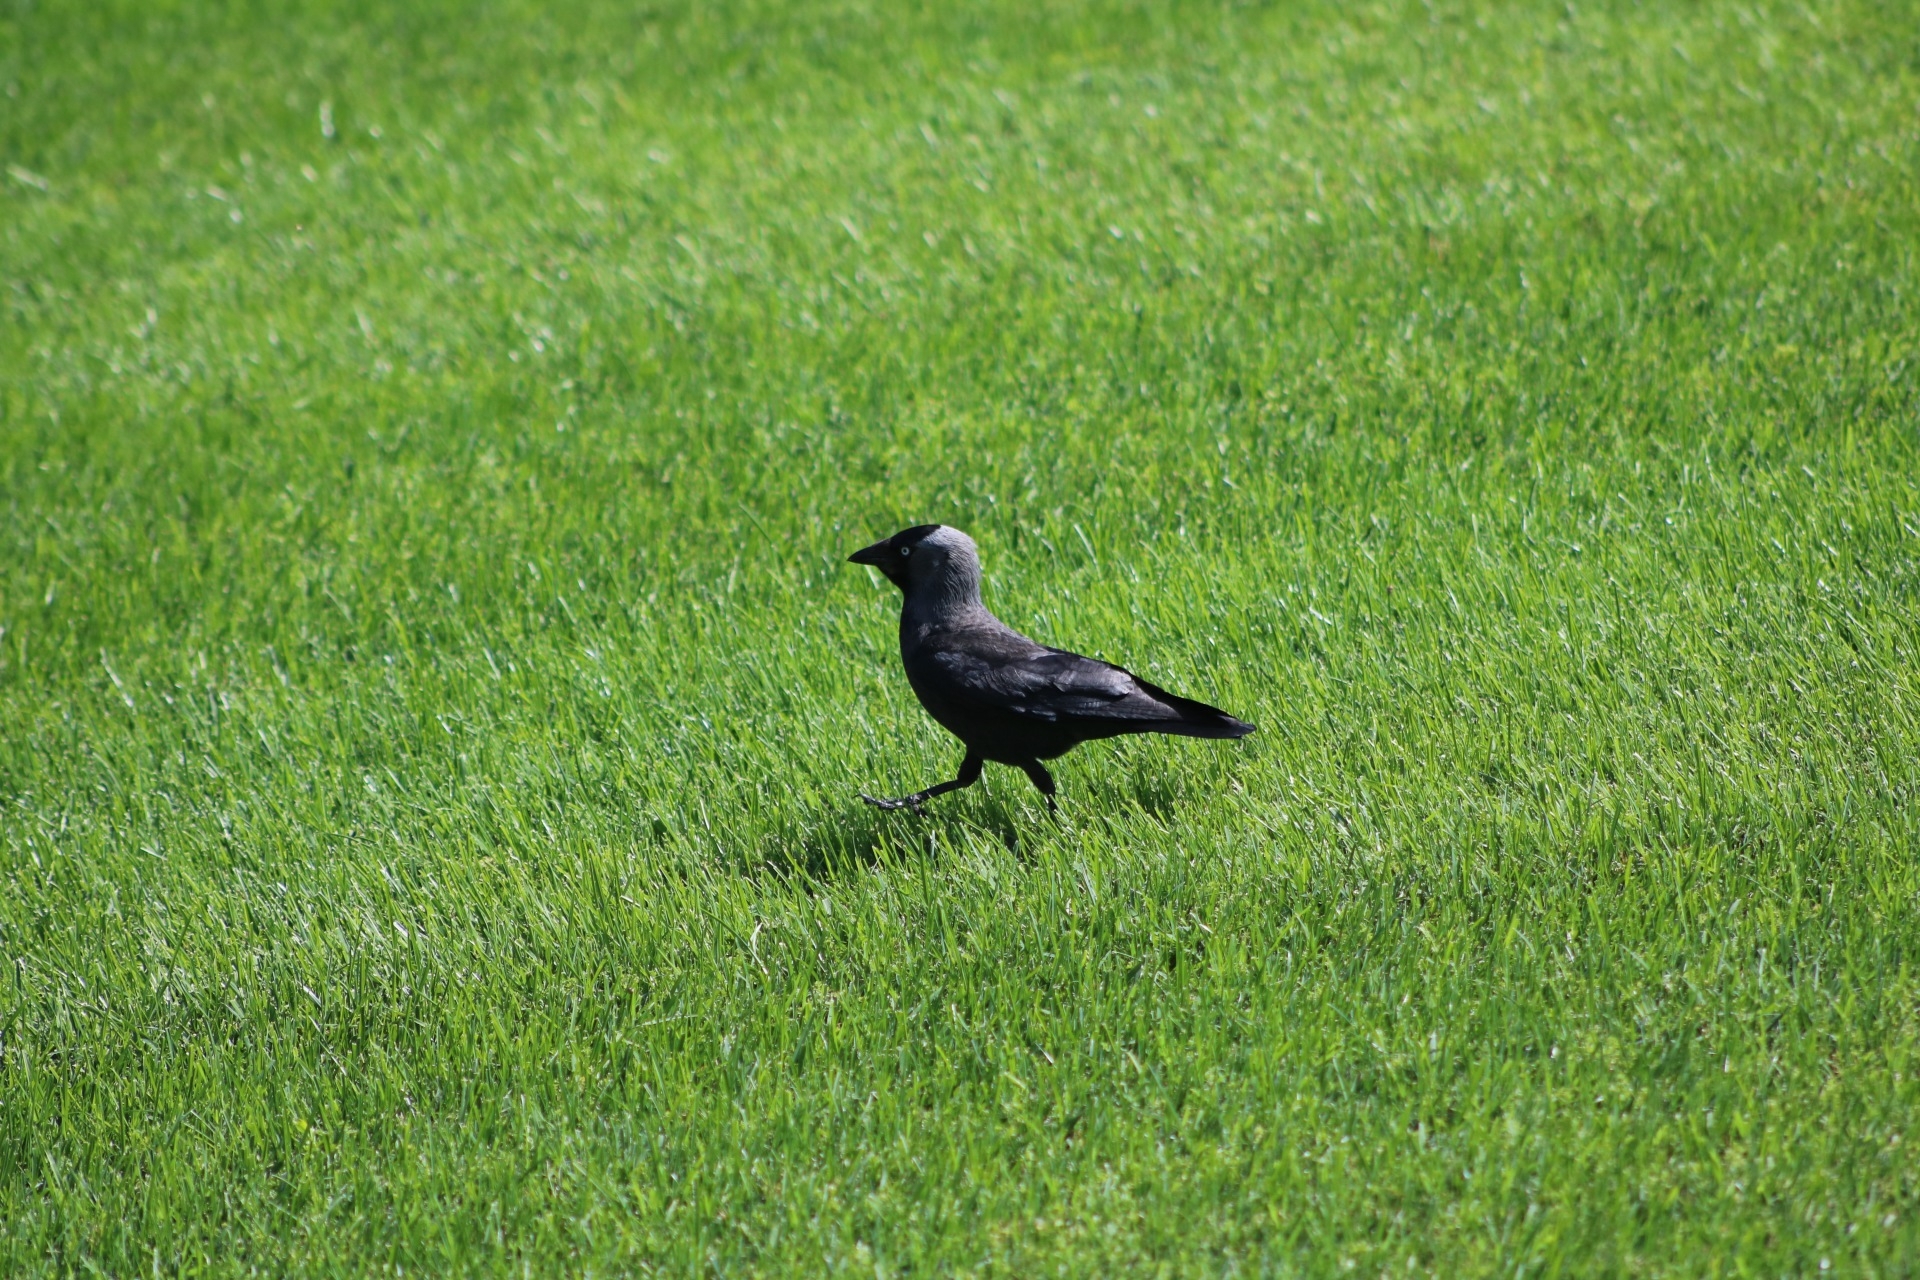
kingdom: Animalia
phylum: Chordata
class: Aves
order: Passeriformes
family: Corvidae
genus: Coloeus
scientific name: Coloeus monedula
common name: Western jackdaw
